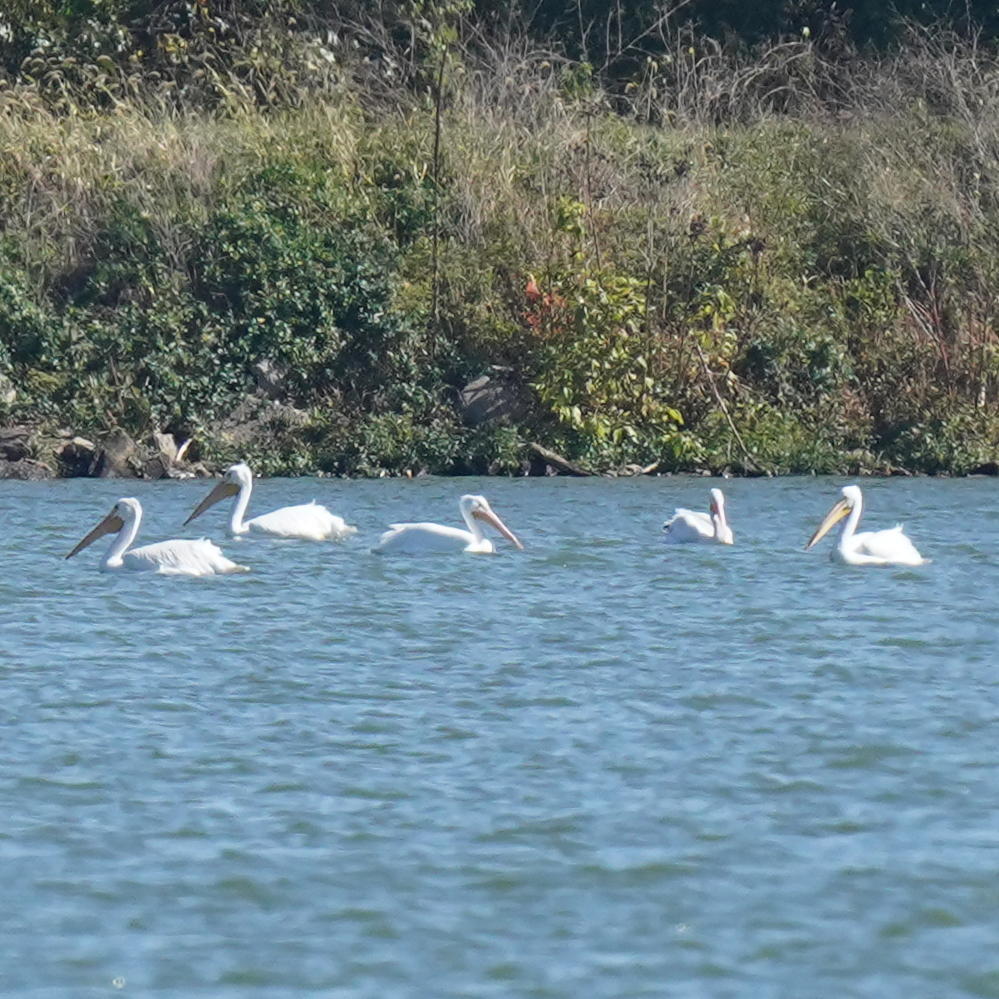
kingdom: Animalia
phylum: Chordata
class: Aves
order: Pelecaniformes
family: Pelecanidae
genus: Pelecanus
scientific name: Pelecanus erythrorhynchos
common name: American white pelican
